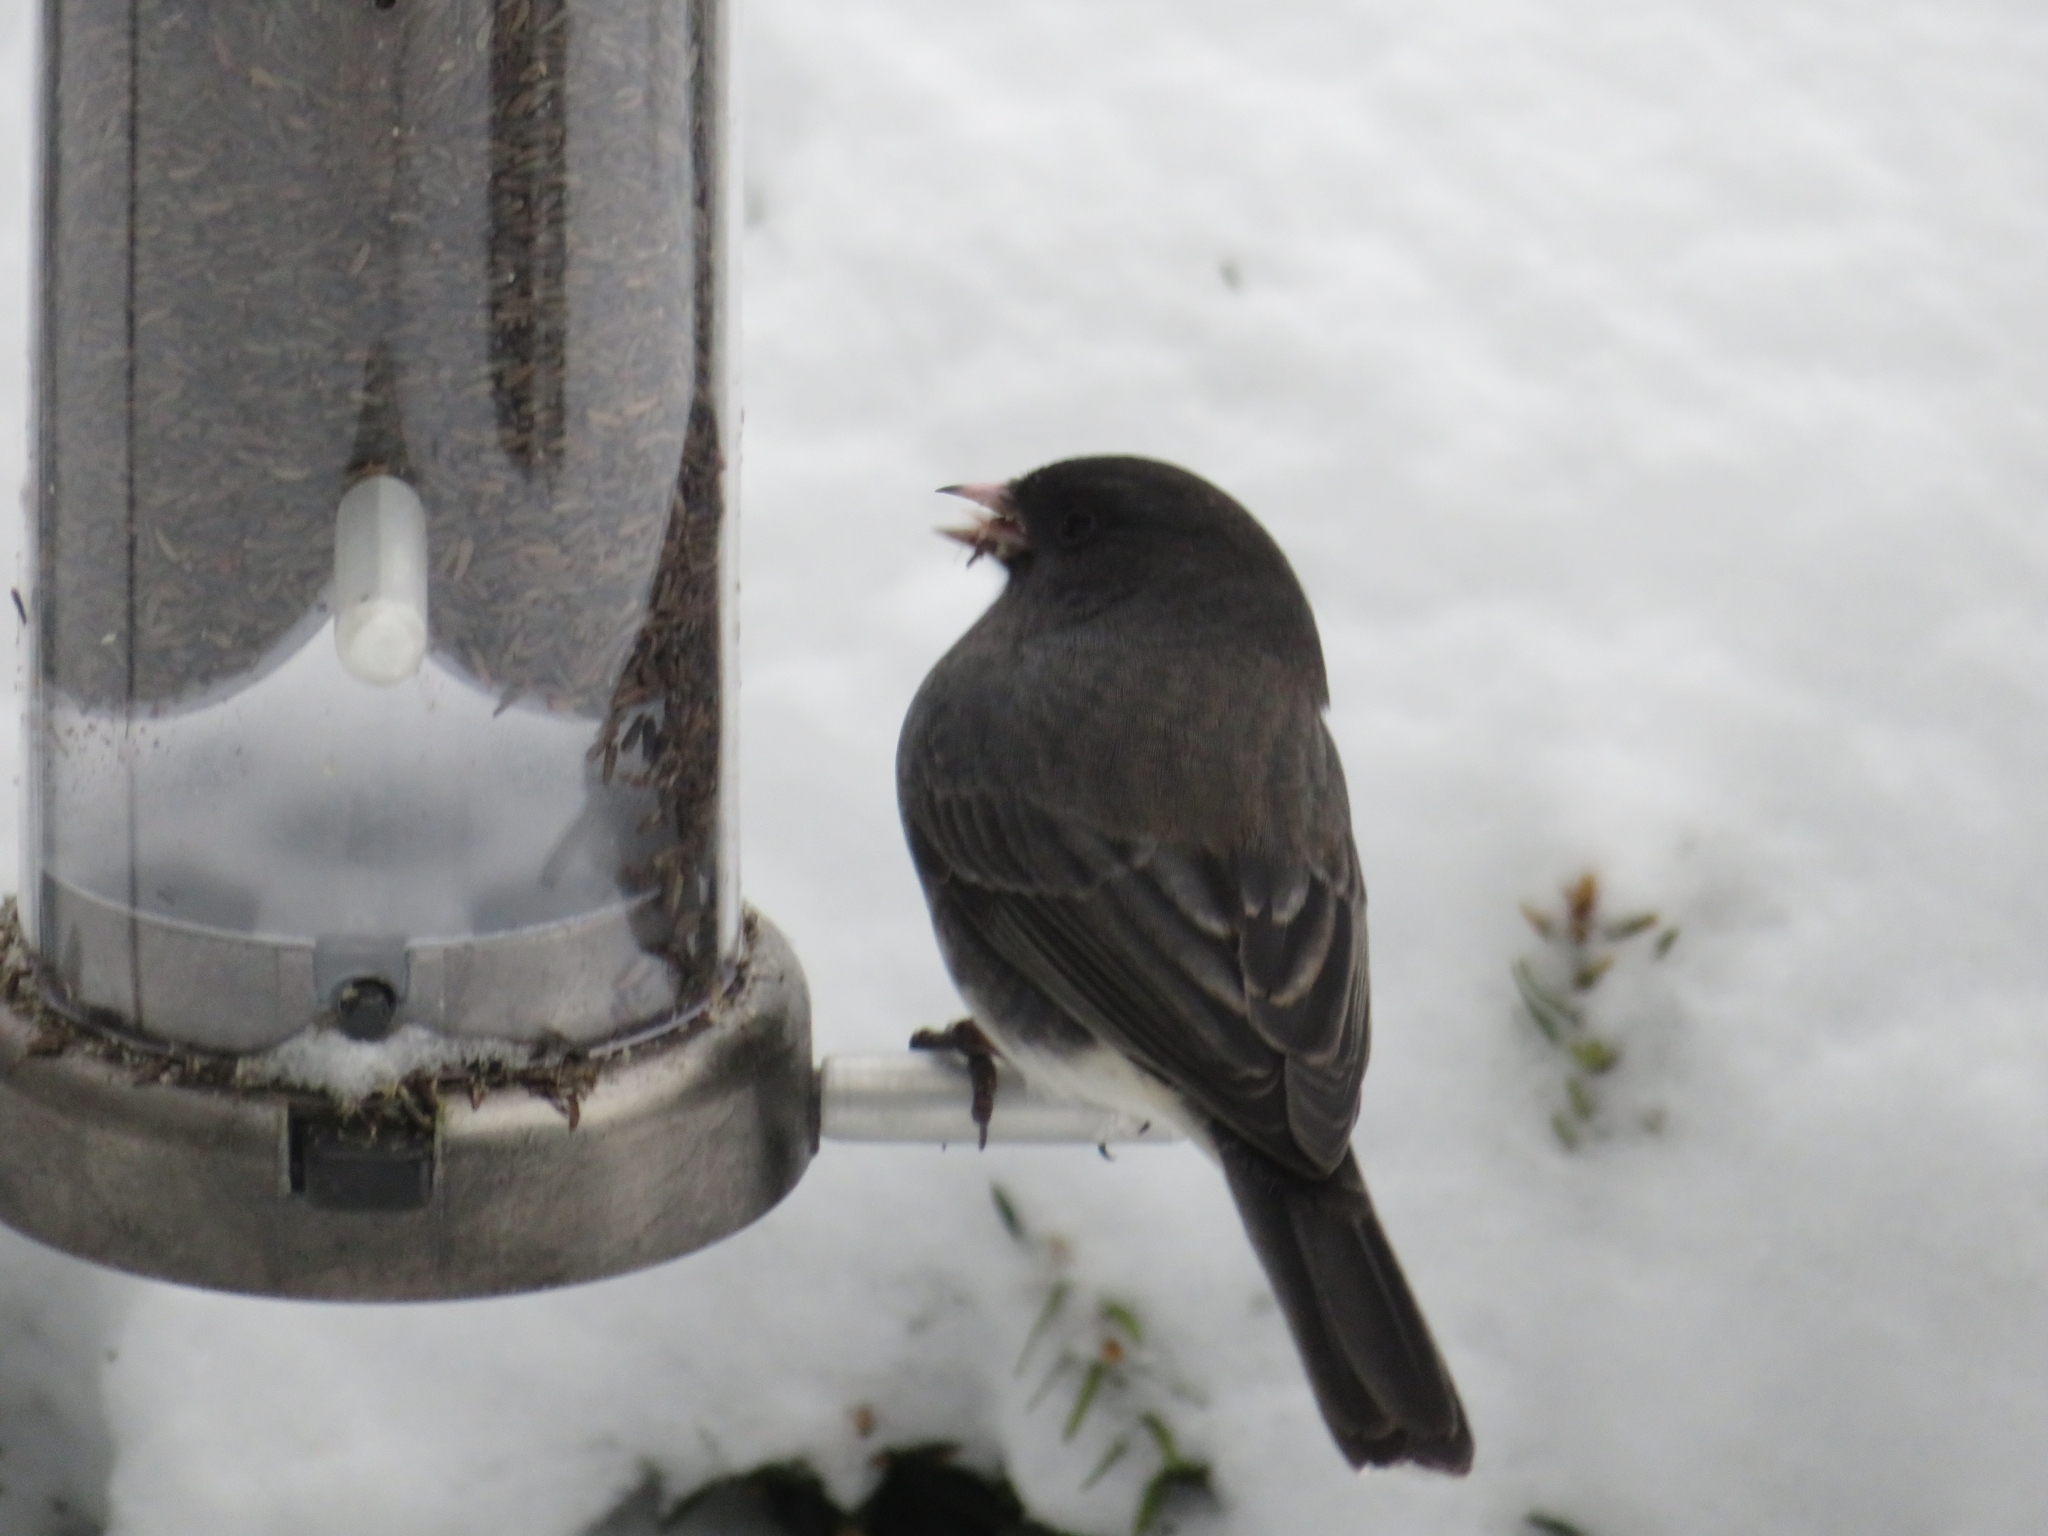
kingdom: Animalia
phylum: Chordata
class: Aves
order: Passeriformes
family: Passerellidae
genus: Junco
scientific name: Junco hyemalis
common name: Dark-eyed junco
